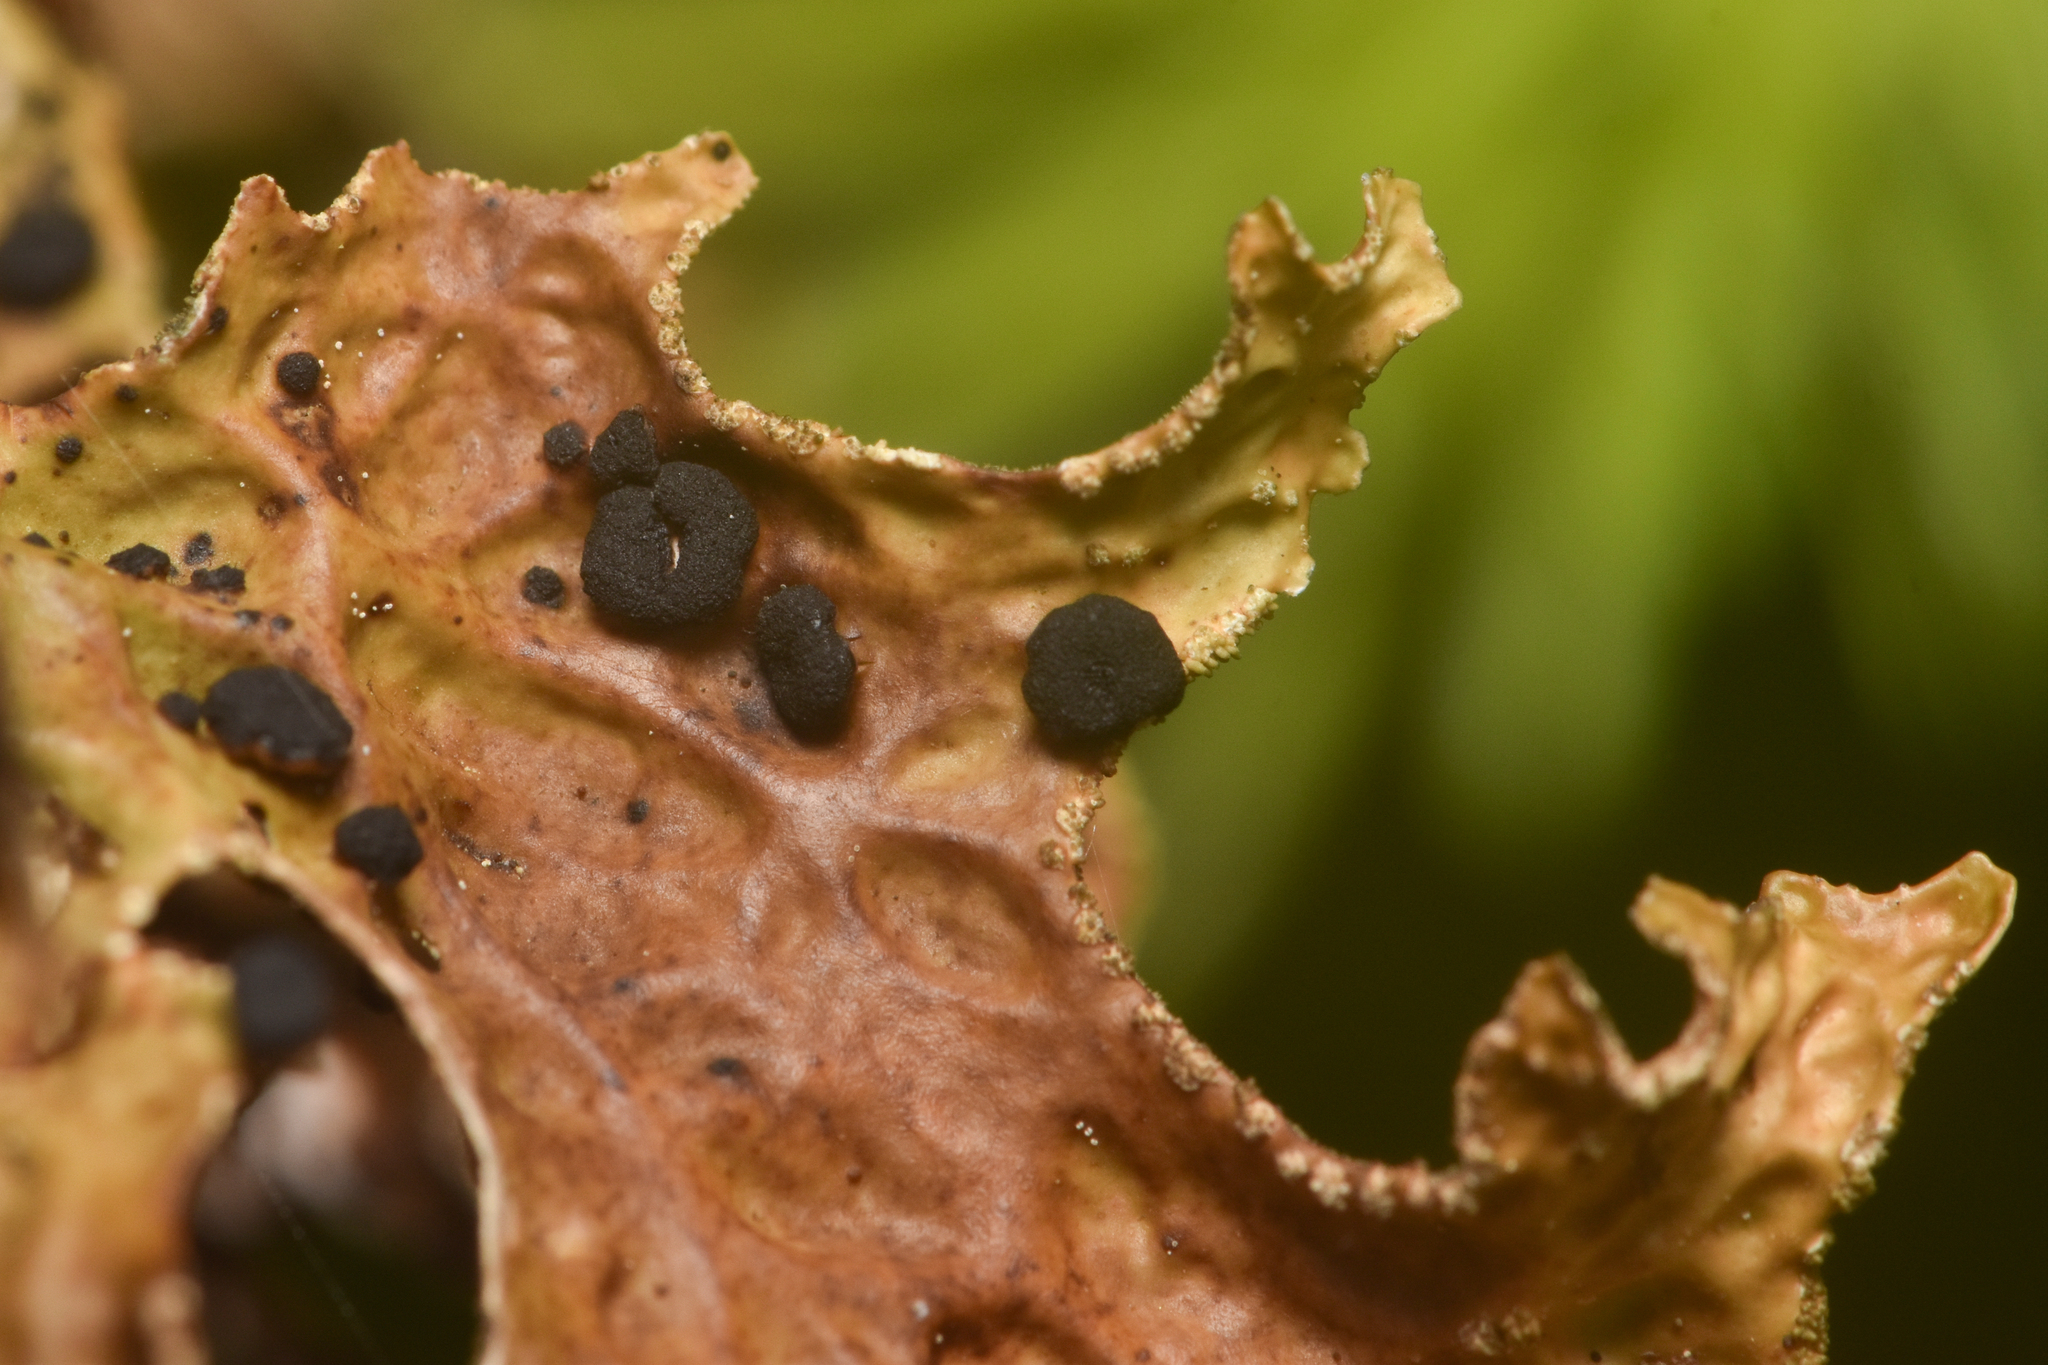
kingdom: Fungi
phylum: Ascomycota
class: Arthoniomycetes
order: Arthoniales
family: Lecanographaceae
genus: Plectocarpon
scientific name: Plectocarpon lichenum
